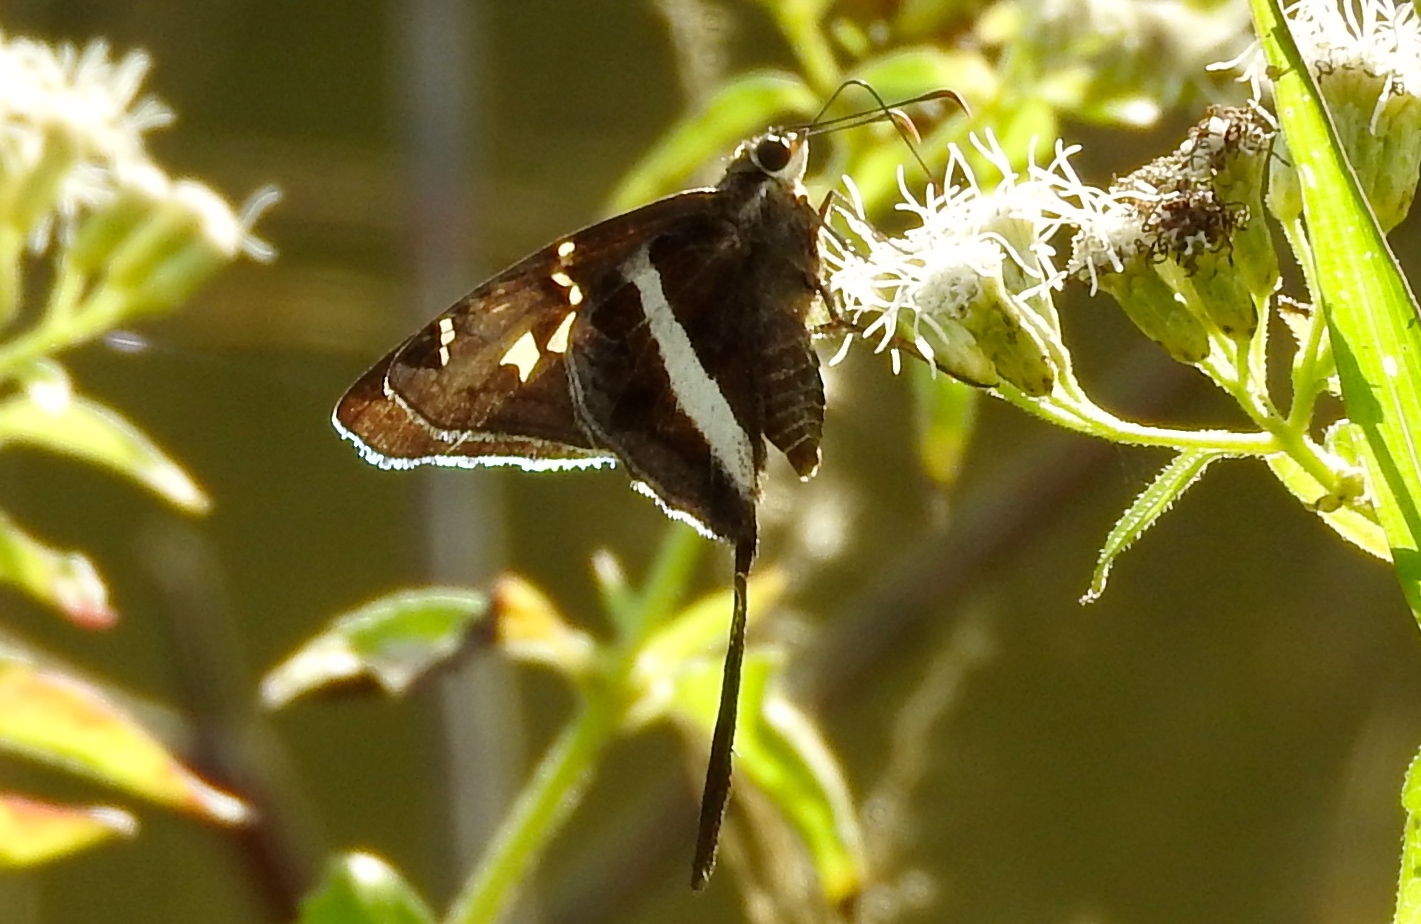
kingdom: Animalia
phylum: Arthropoda
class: Insecta
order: Lepidoptera
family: Hesperiidae
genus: Chioides
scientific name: Chioides catillus
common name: Silverbanded skipper
